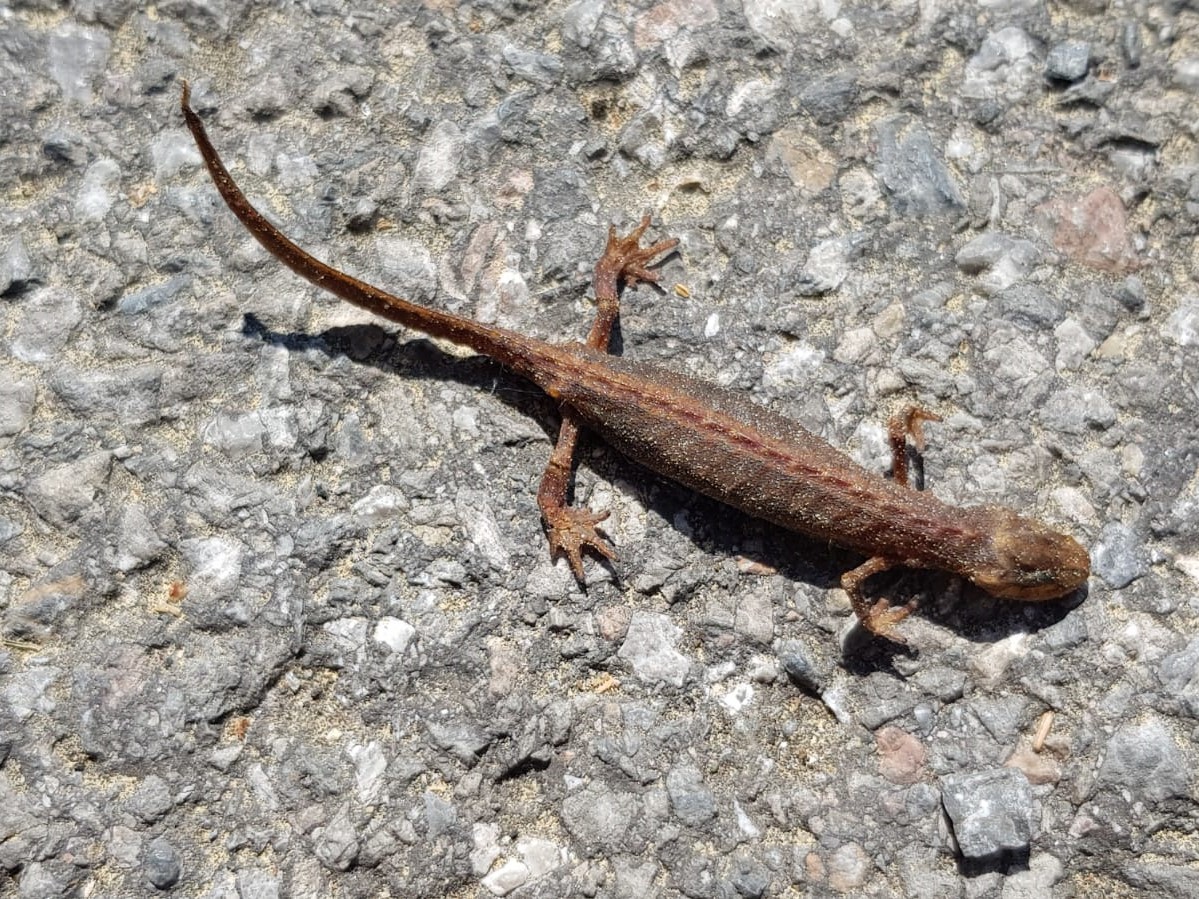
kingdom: Animalia
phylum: Chordata
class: Amphibia
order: Caudata
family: Salamandridae
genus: Lissotriton
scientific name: Lissotriton vulgaris
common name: Smooth newt
